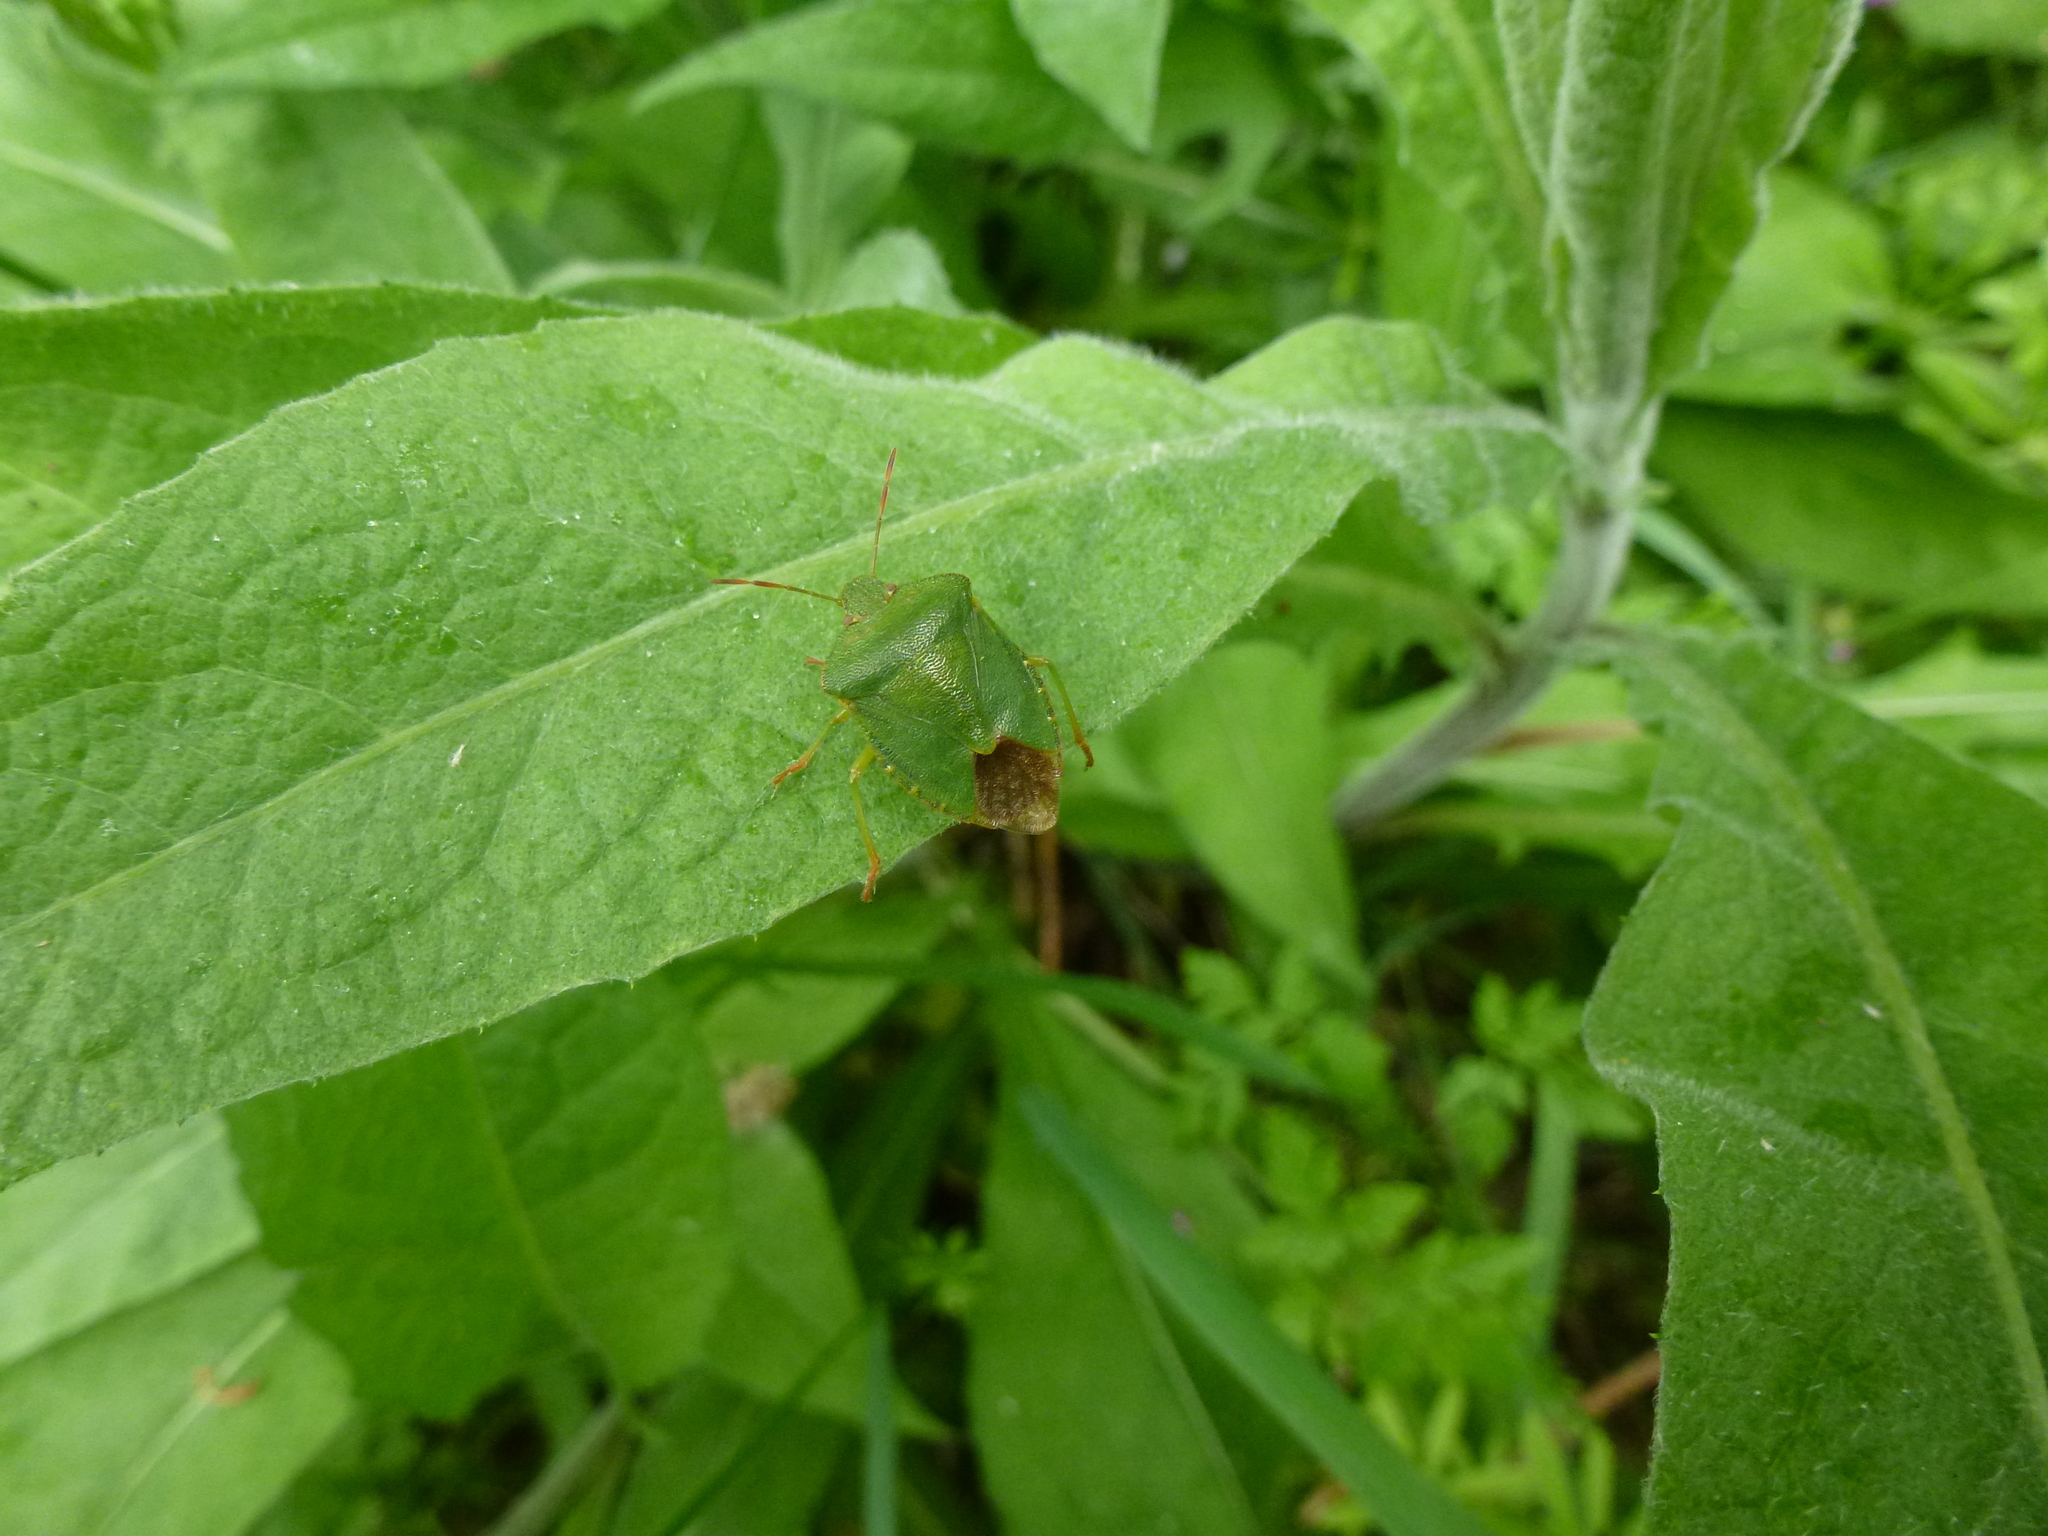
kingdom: Animalia
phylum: Arthropoda
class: Insecta
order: Hemiptera
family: Pentatomidae
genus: Palomena
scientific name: Palomena prasina
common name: Green shieldbug
